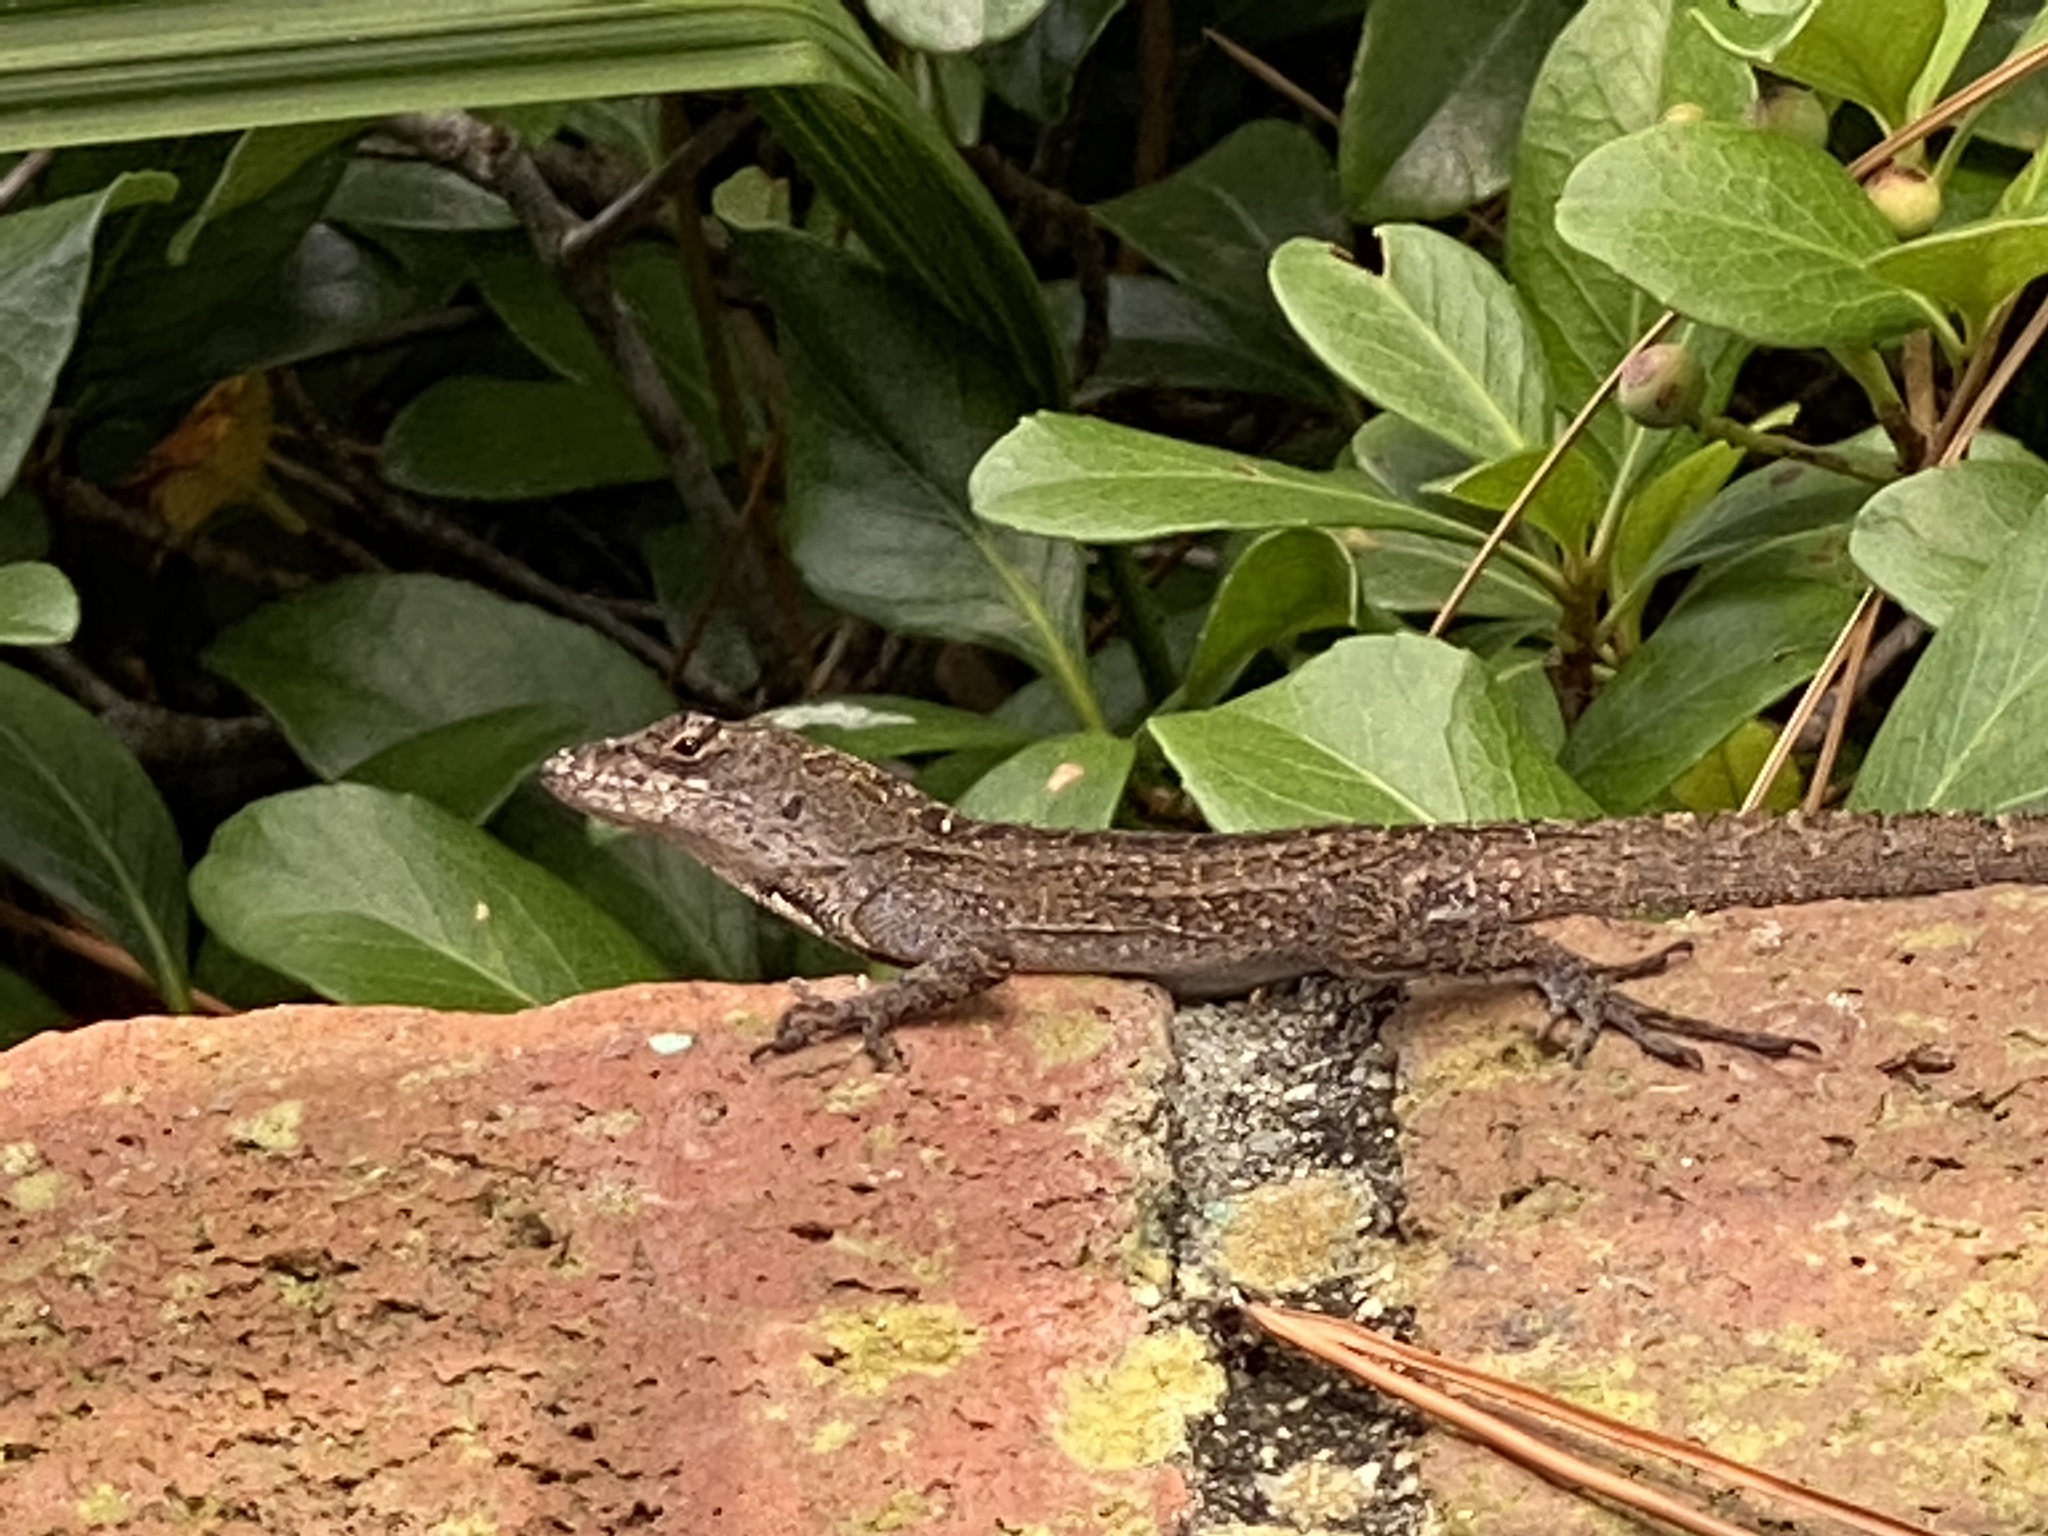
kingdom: Animalia
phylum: Chordata
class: Squamata
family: Dactyloidae
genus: Anolis
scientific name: Anolis sagrei
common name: Brown anole
